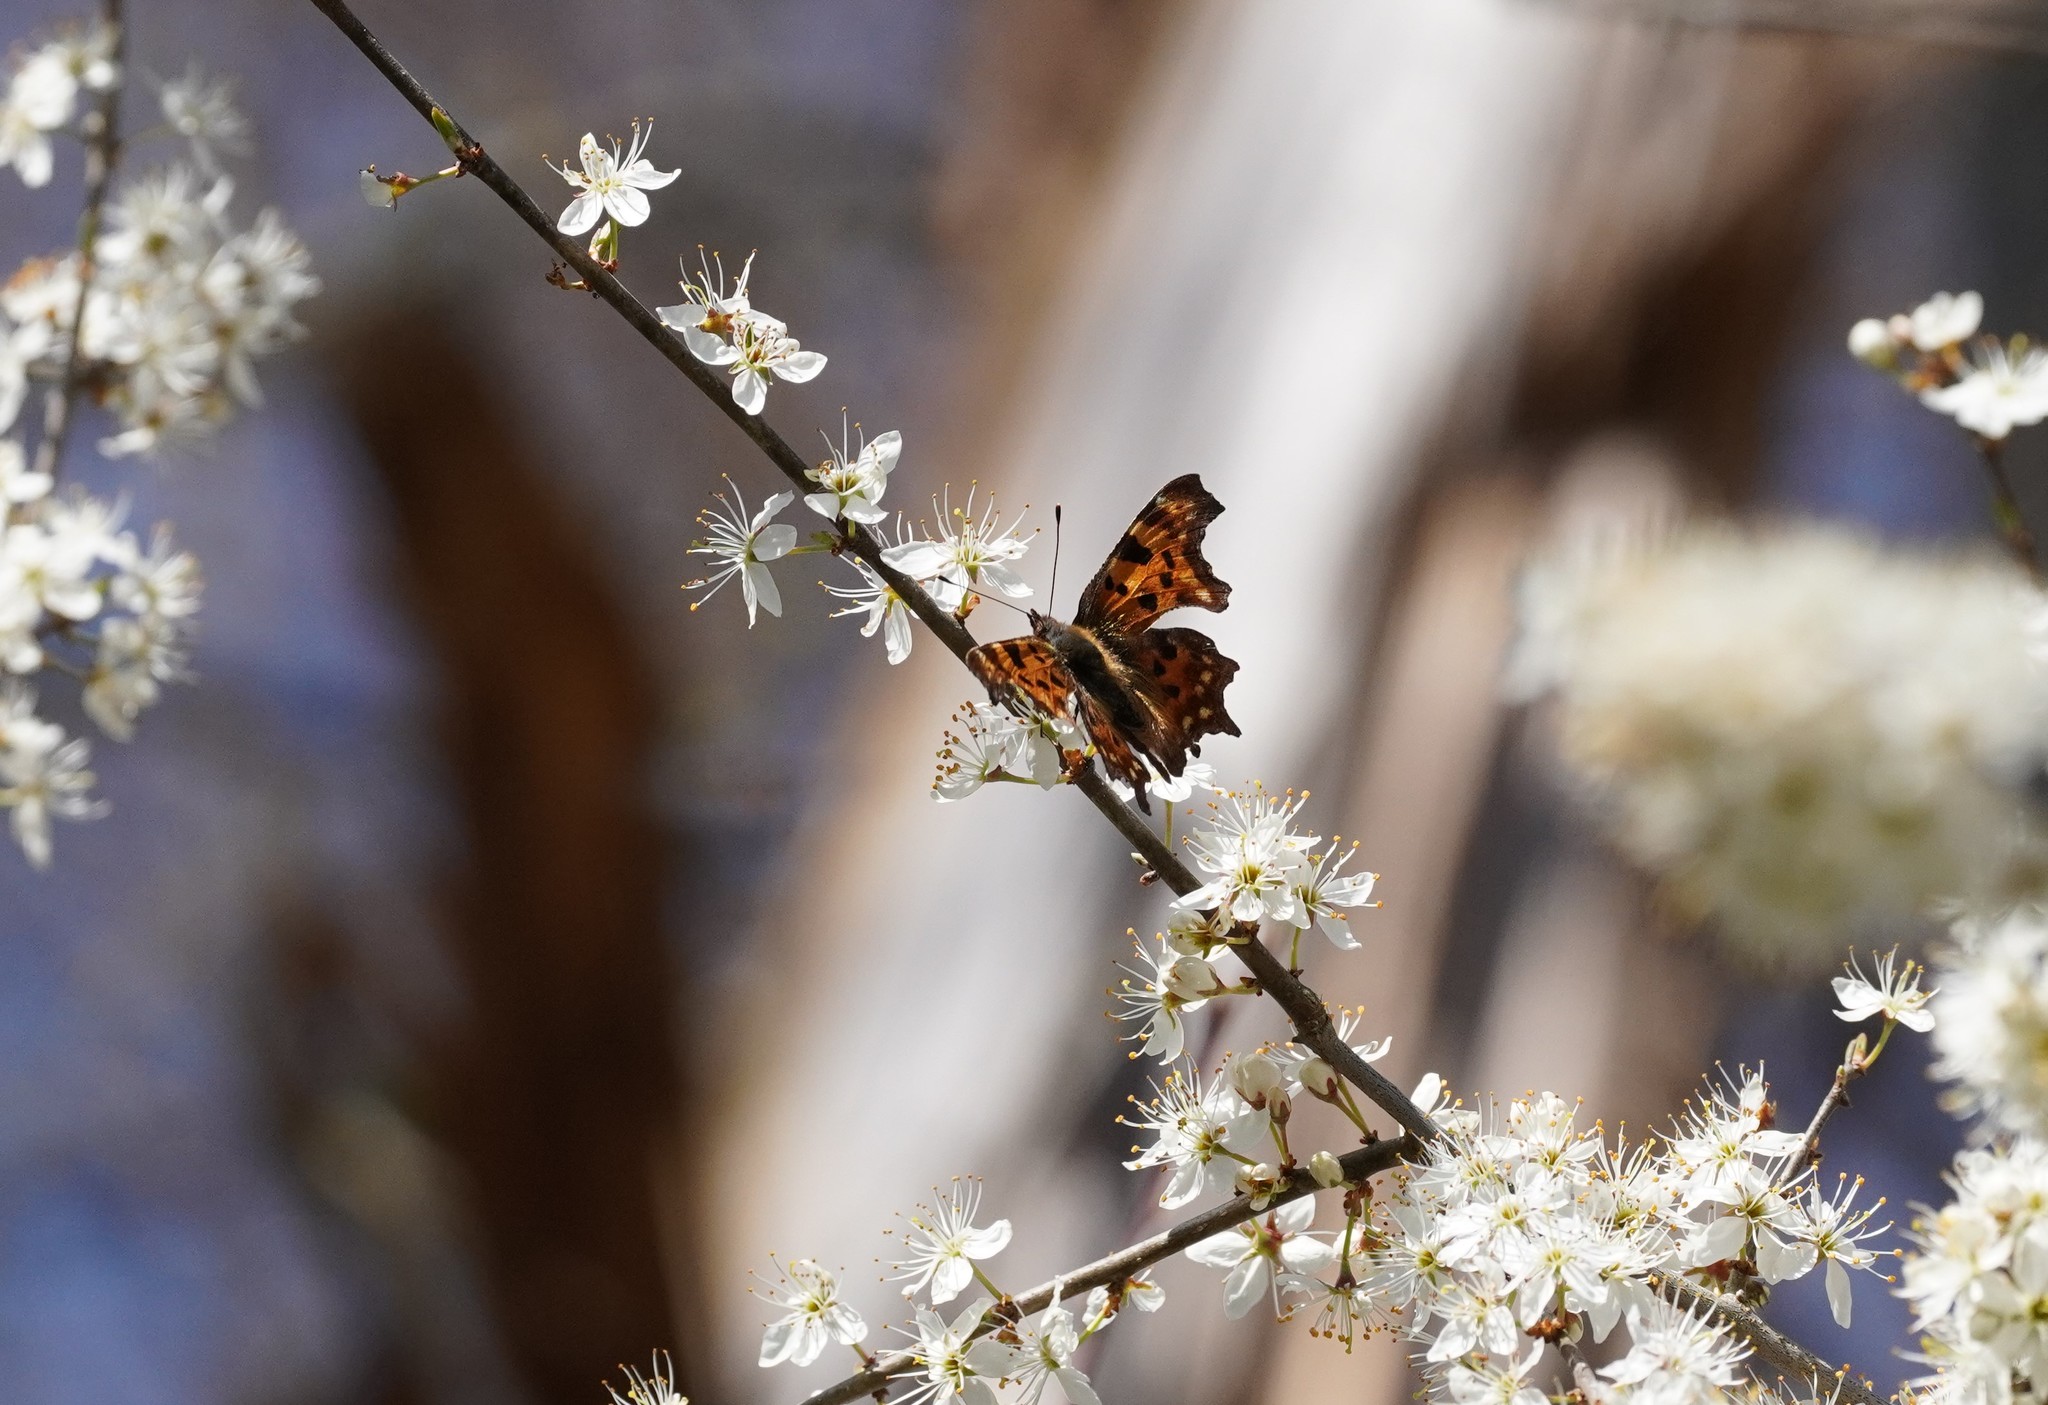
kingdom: Animalia
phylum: Arthropoda
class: Insecta
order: Lepidoptera
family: Nymphalidae
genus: Polygonia
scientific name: Polygonia c-album
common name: Comma
